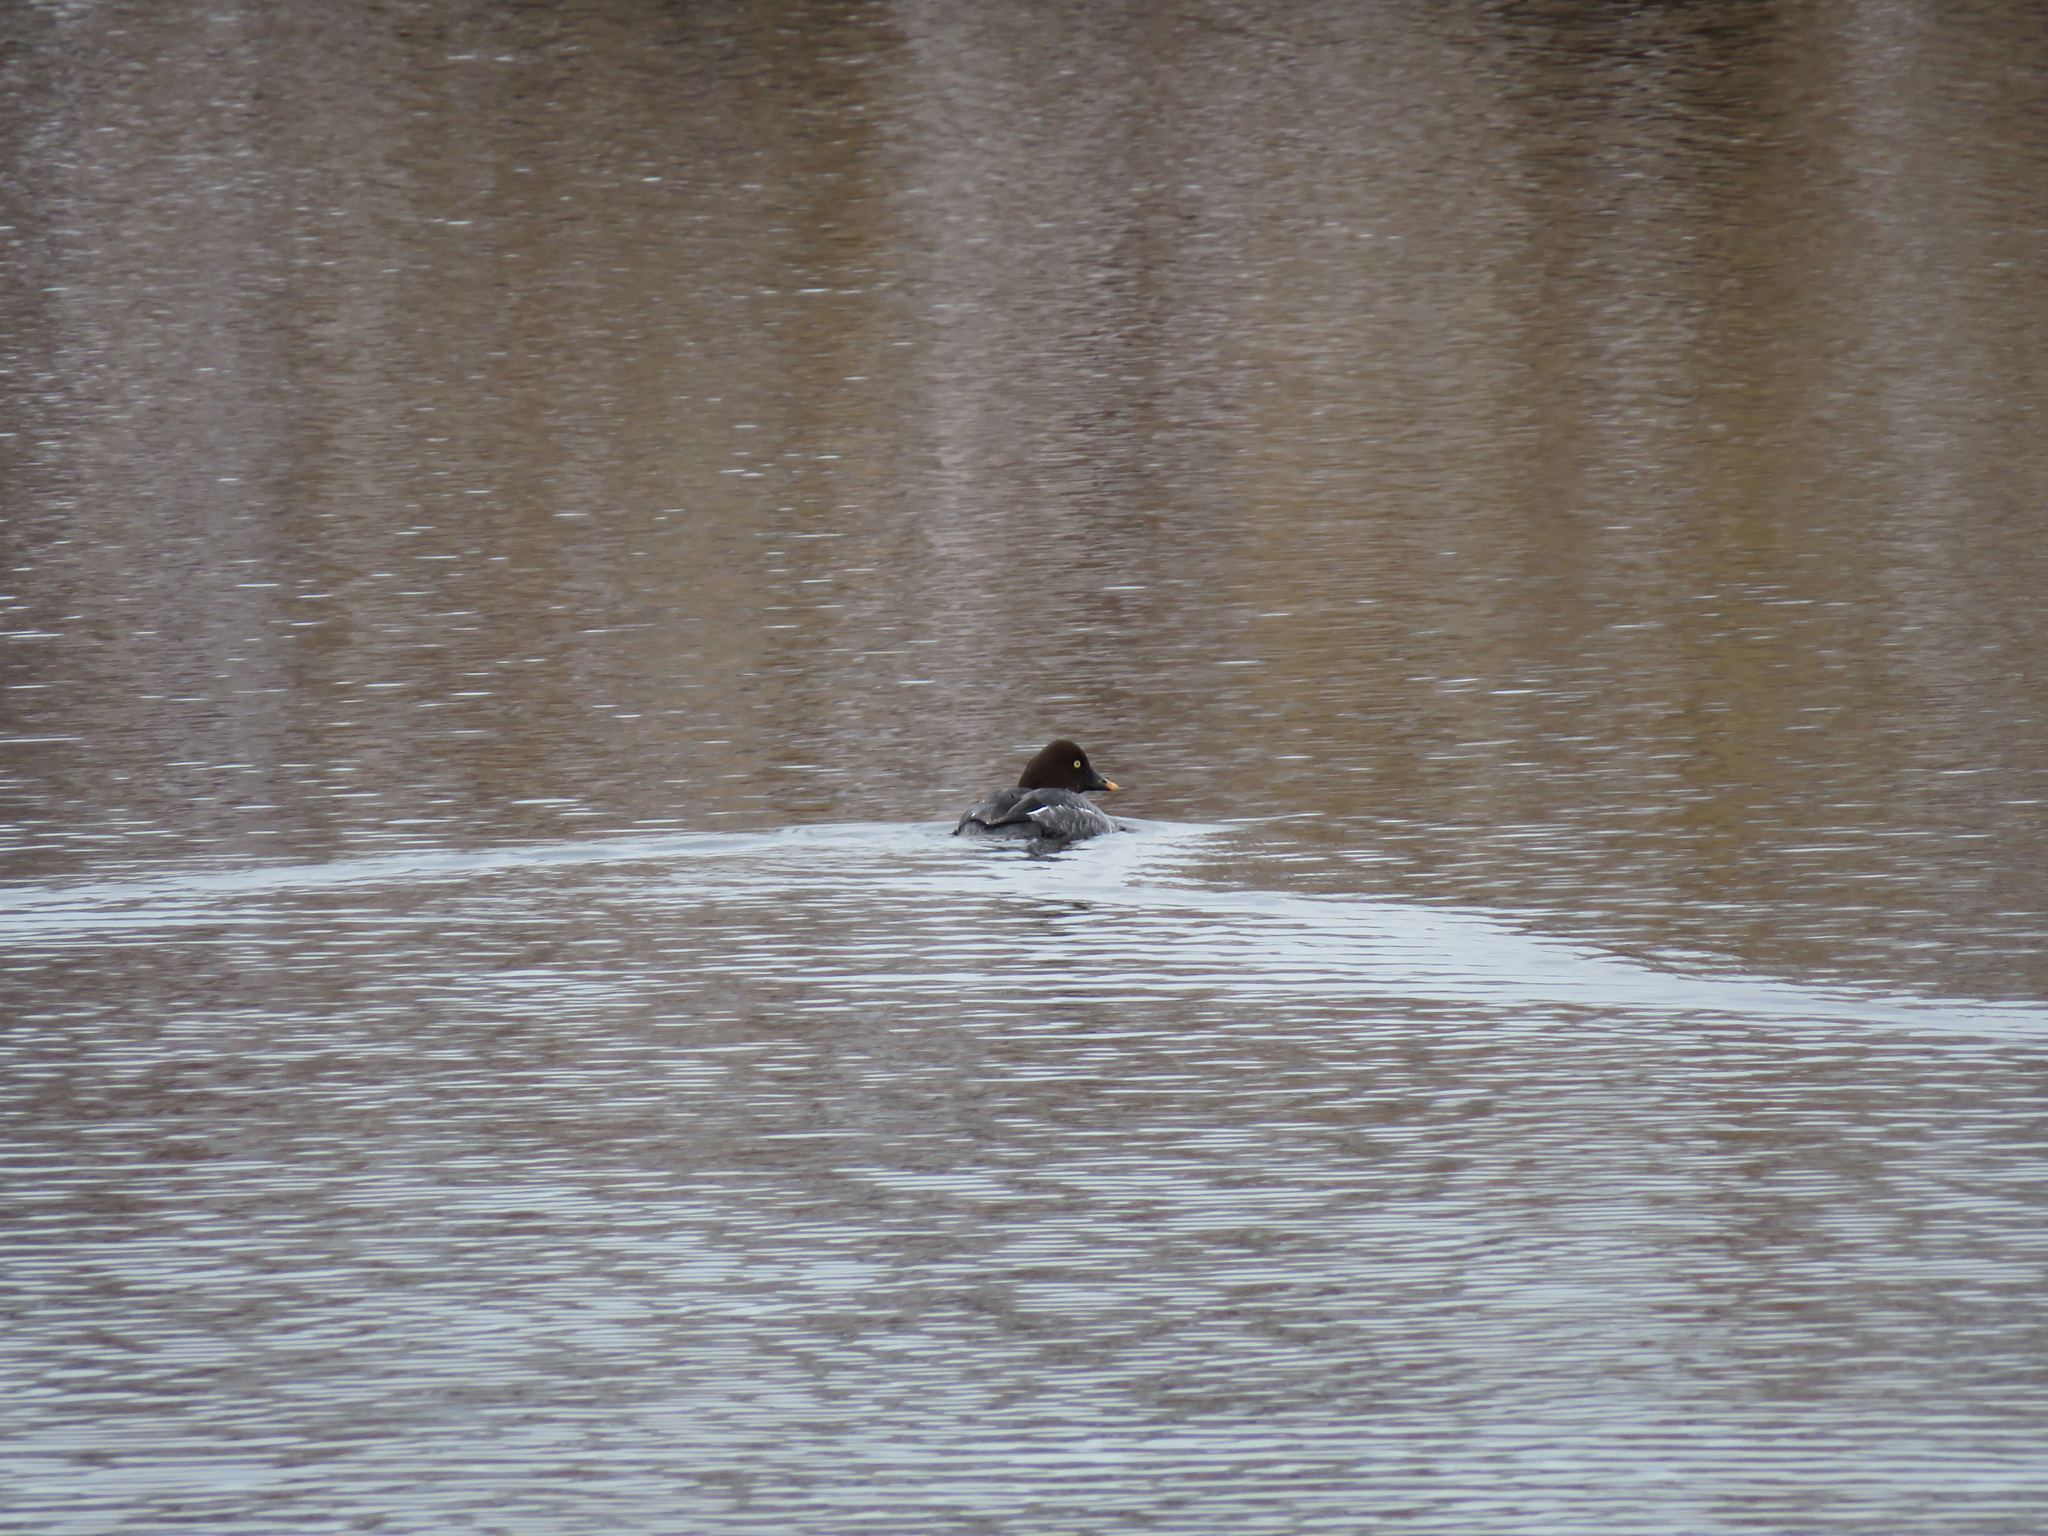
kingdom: Animalia
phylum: Chordata
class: Aves
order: Anseriformes
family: Anatidae
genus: Bucephala
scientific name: Bucephala clangula
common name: Common goldeneye
